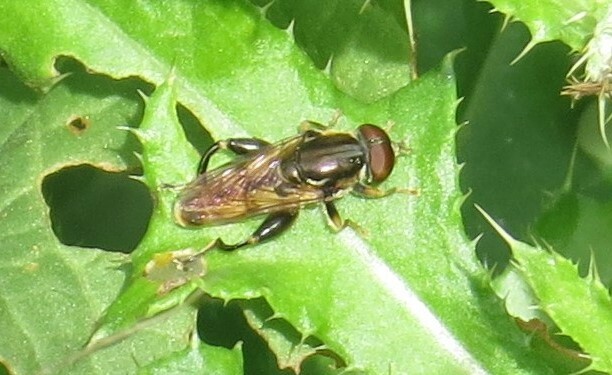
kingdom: Animalia
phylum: Arthropoda
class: Insecta
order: Diptera
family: Syrphidae
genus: Tropidia
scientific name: Tropidia quadrata
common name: Common thick-legged fly
